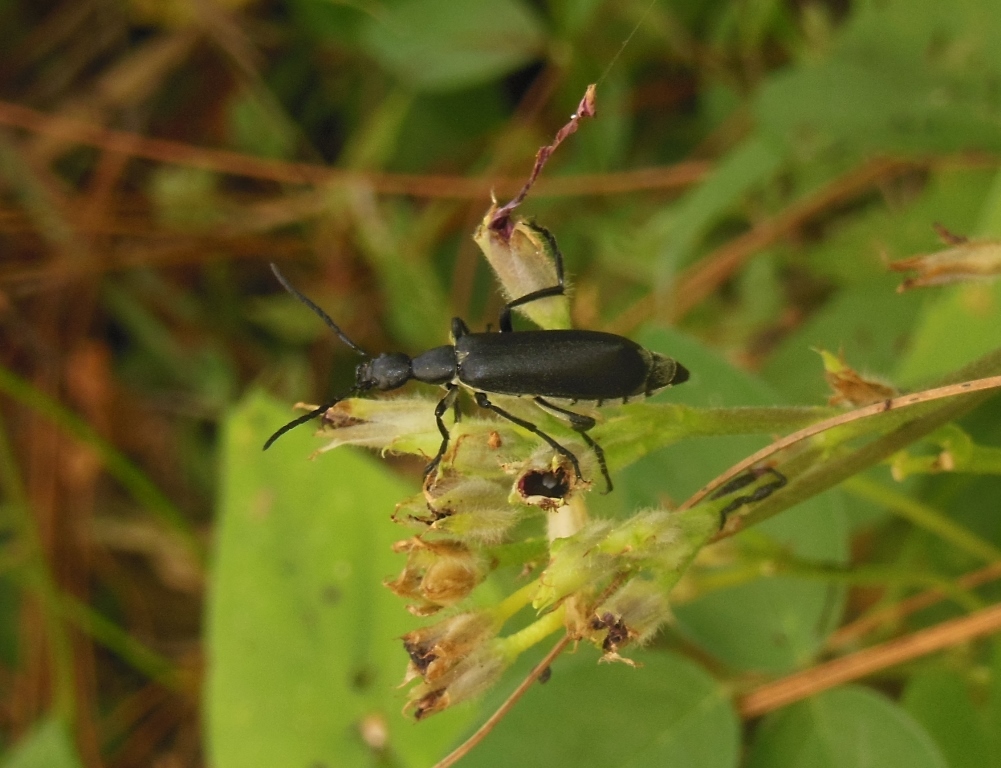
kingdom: Animalia
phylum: Arthropoda
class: Insecta
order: Coleoptera
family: Meloidae
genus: Epicauta
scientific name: Epicauta cinereiventris
